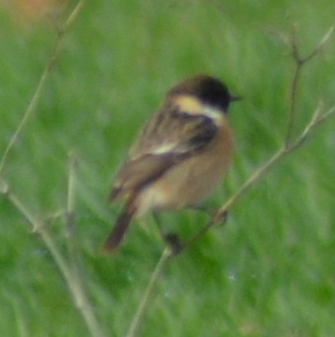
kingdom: Animalia
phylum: Chordata
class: Aves
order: Passeriformes
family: Muscicapidae
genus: Saxicola
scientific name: Saxicola rubicola
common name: European stonechat
